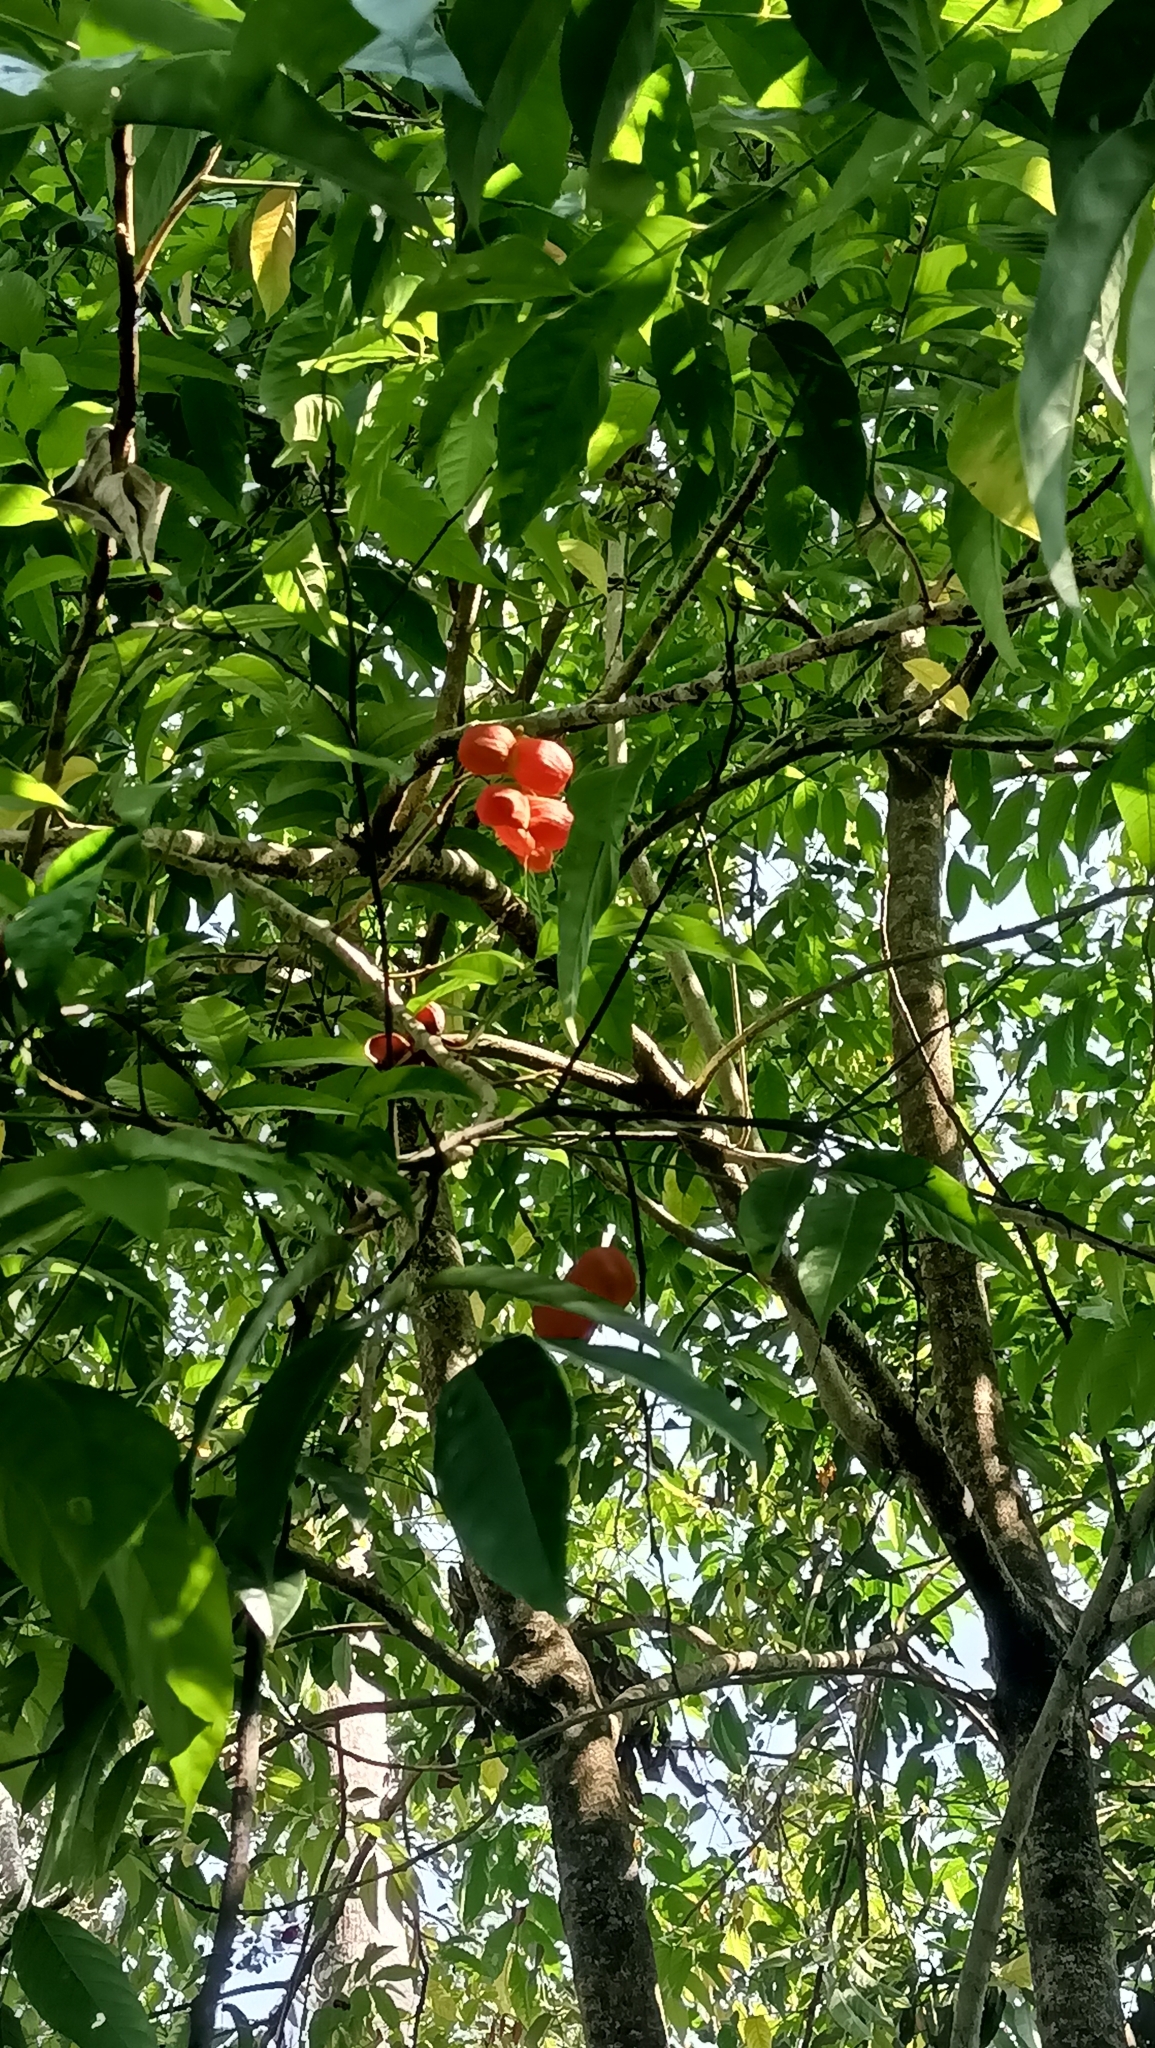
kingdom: Plantae
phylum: Tracheophyta
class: Magnoliopsida
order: Sapindales
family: Sapindaceae
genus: Harpullia
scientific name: Harpullia arborea
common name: Tulip-wood tree
